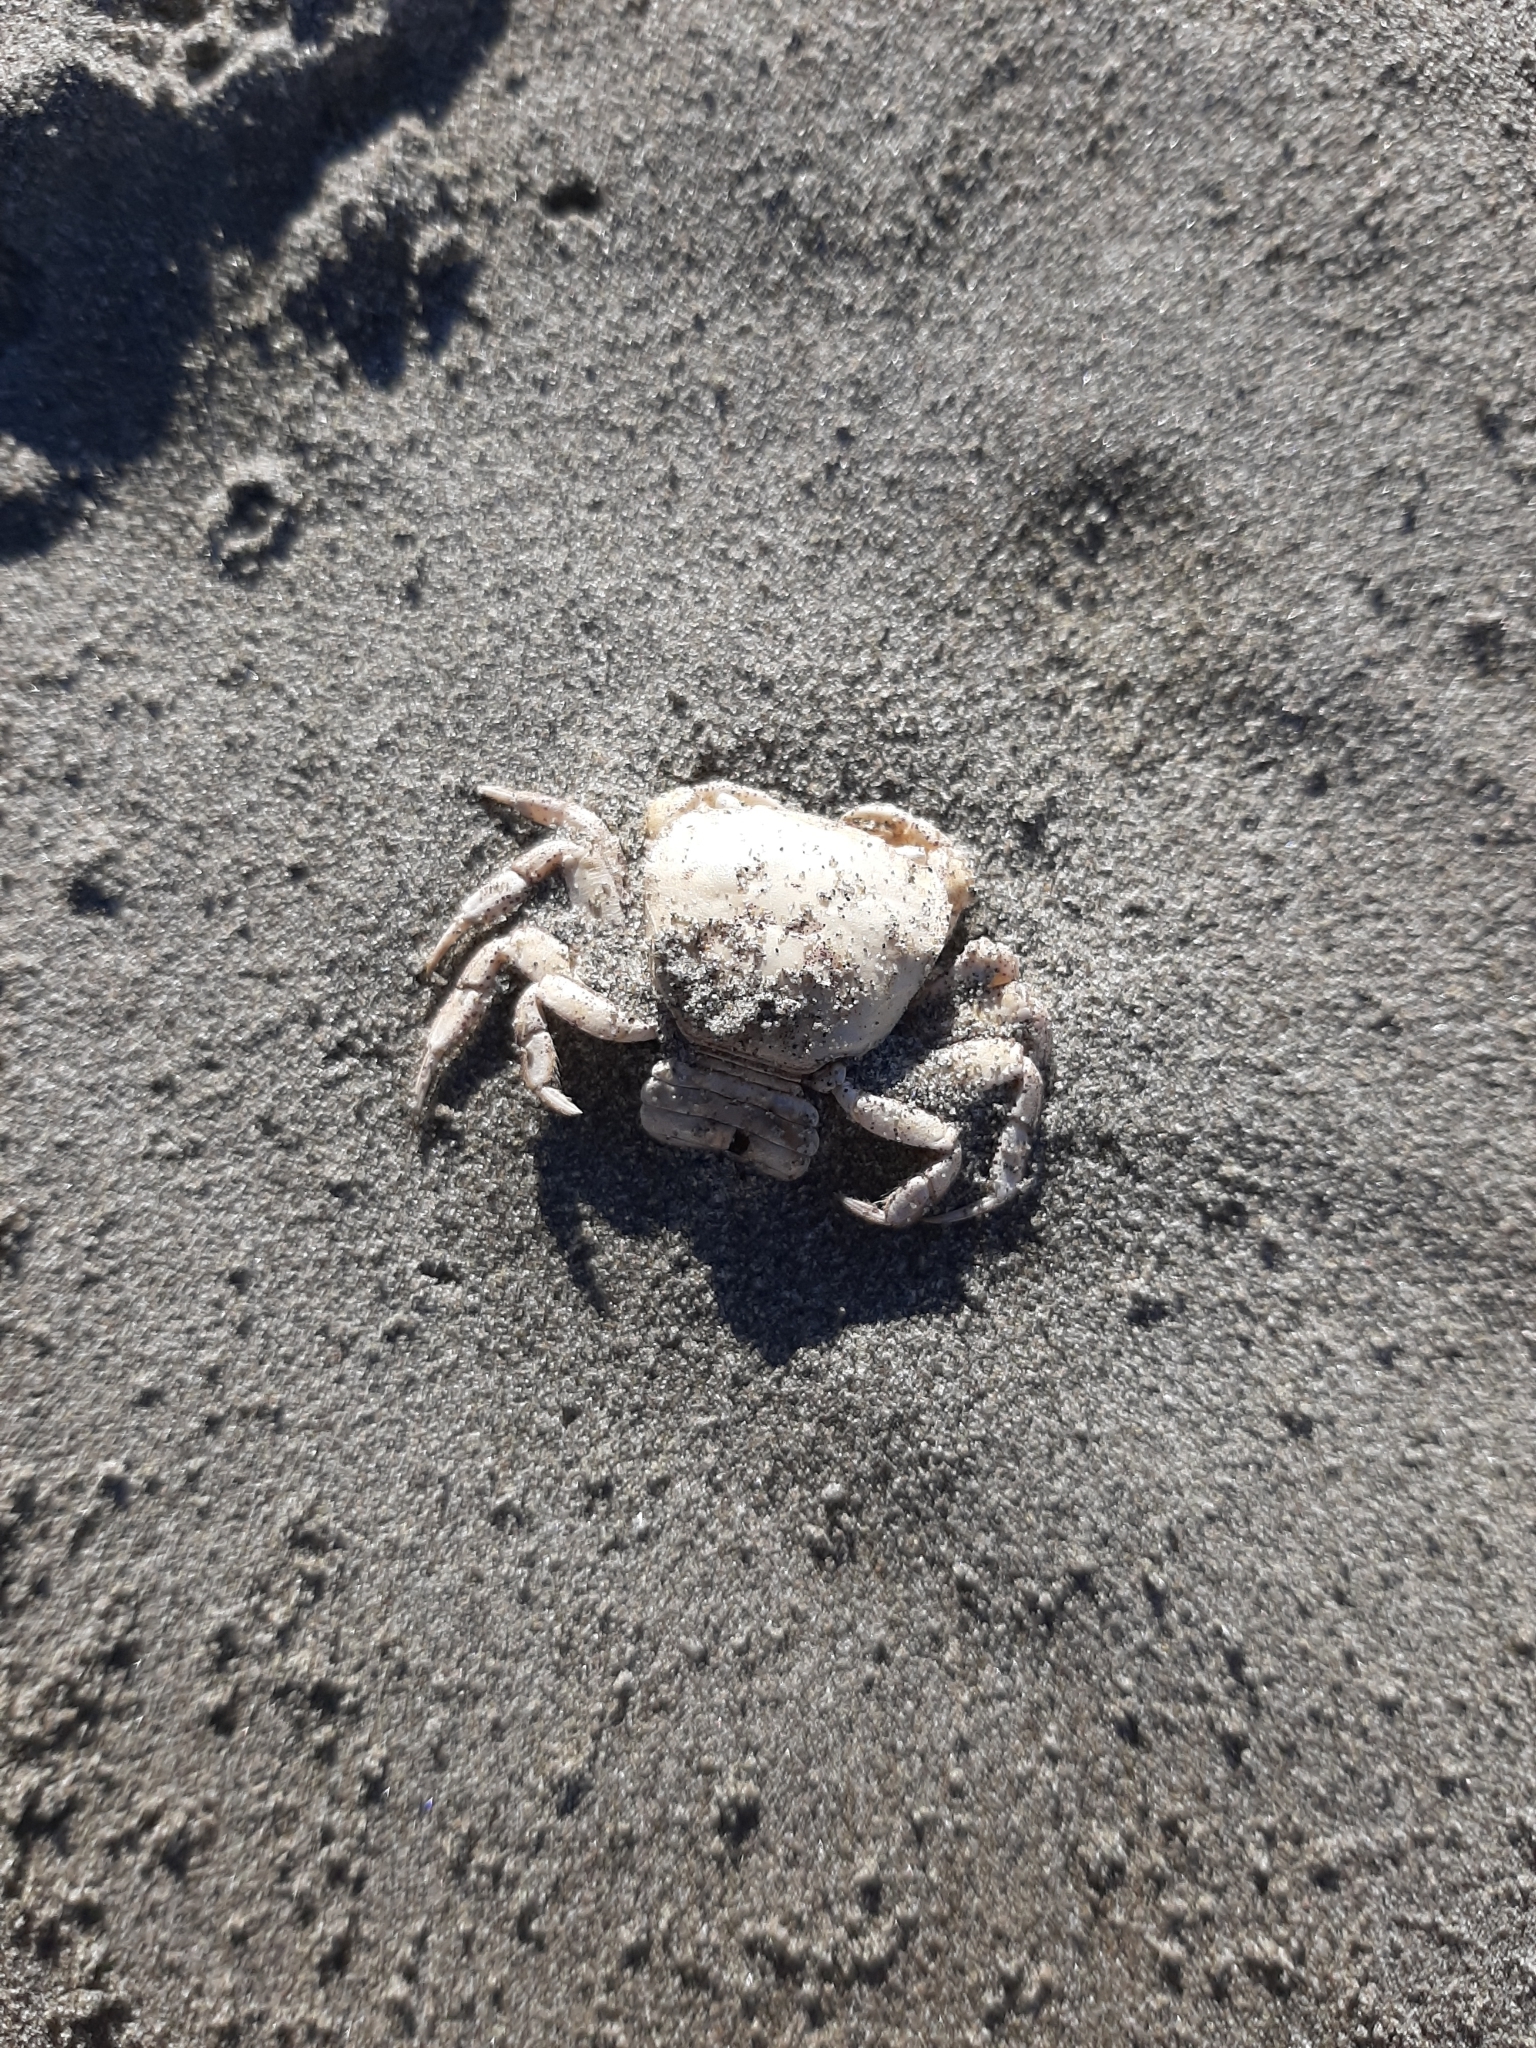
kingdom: Animalia
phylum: Arthropoda
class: Malacostraca
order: Decapoda
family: Varunidae
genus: Hemigrapsus
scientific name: Hemigrapsus crenulatus
